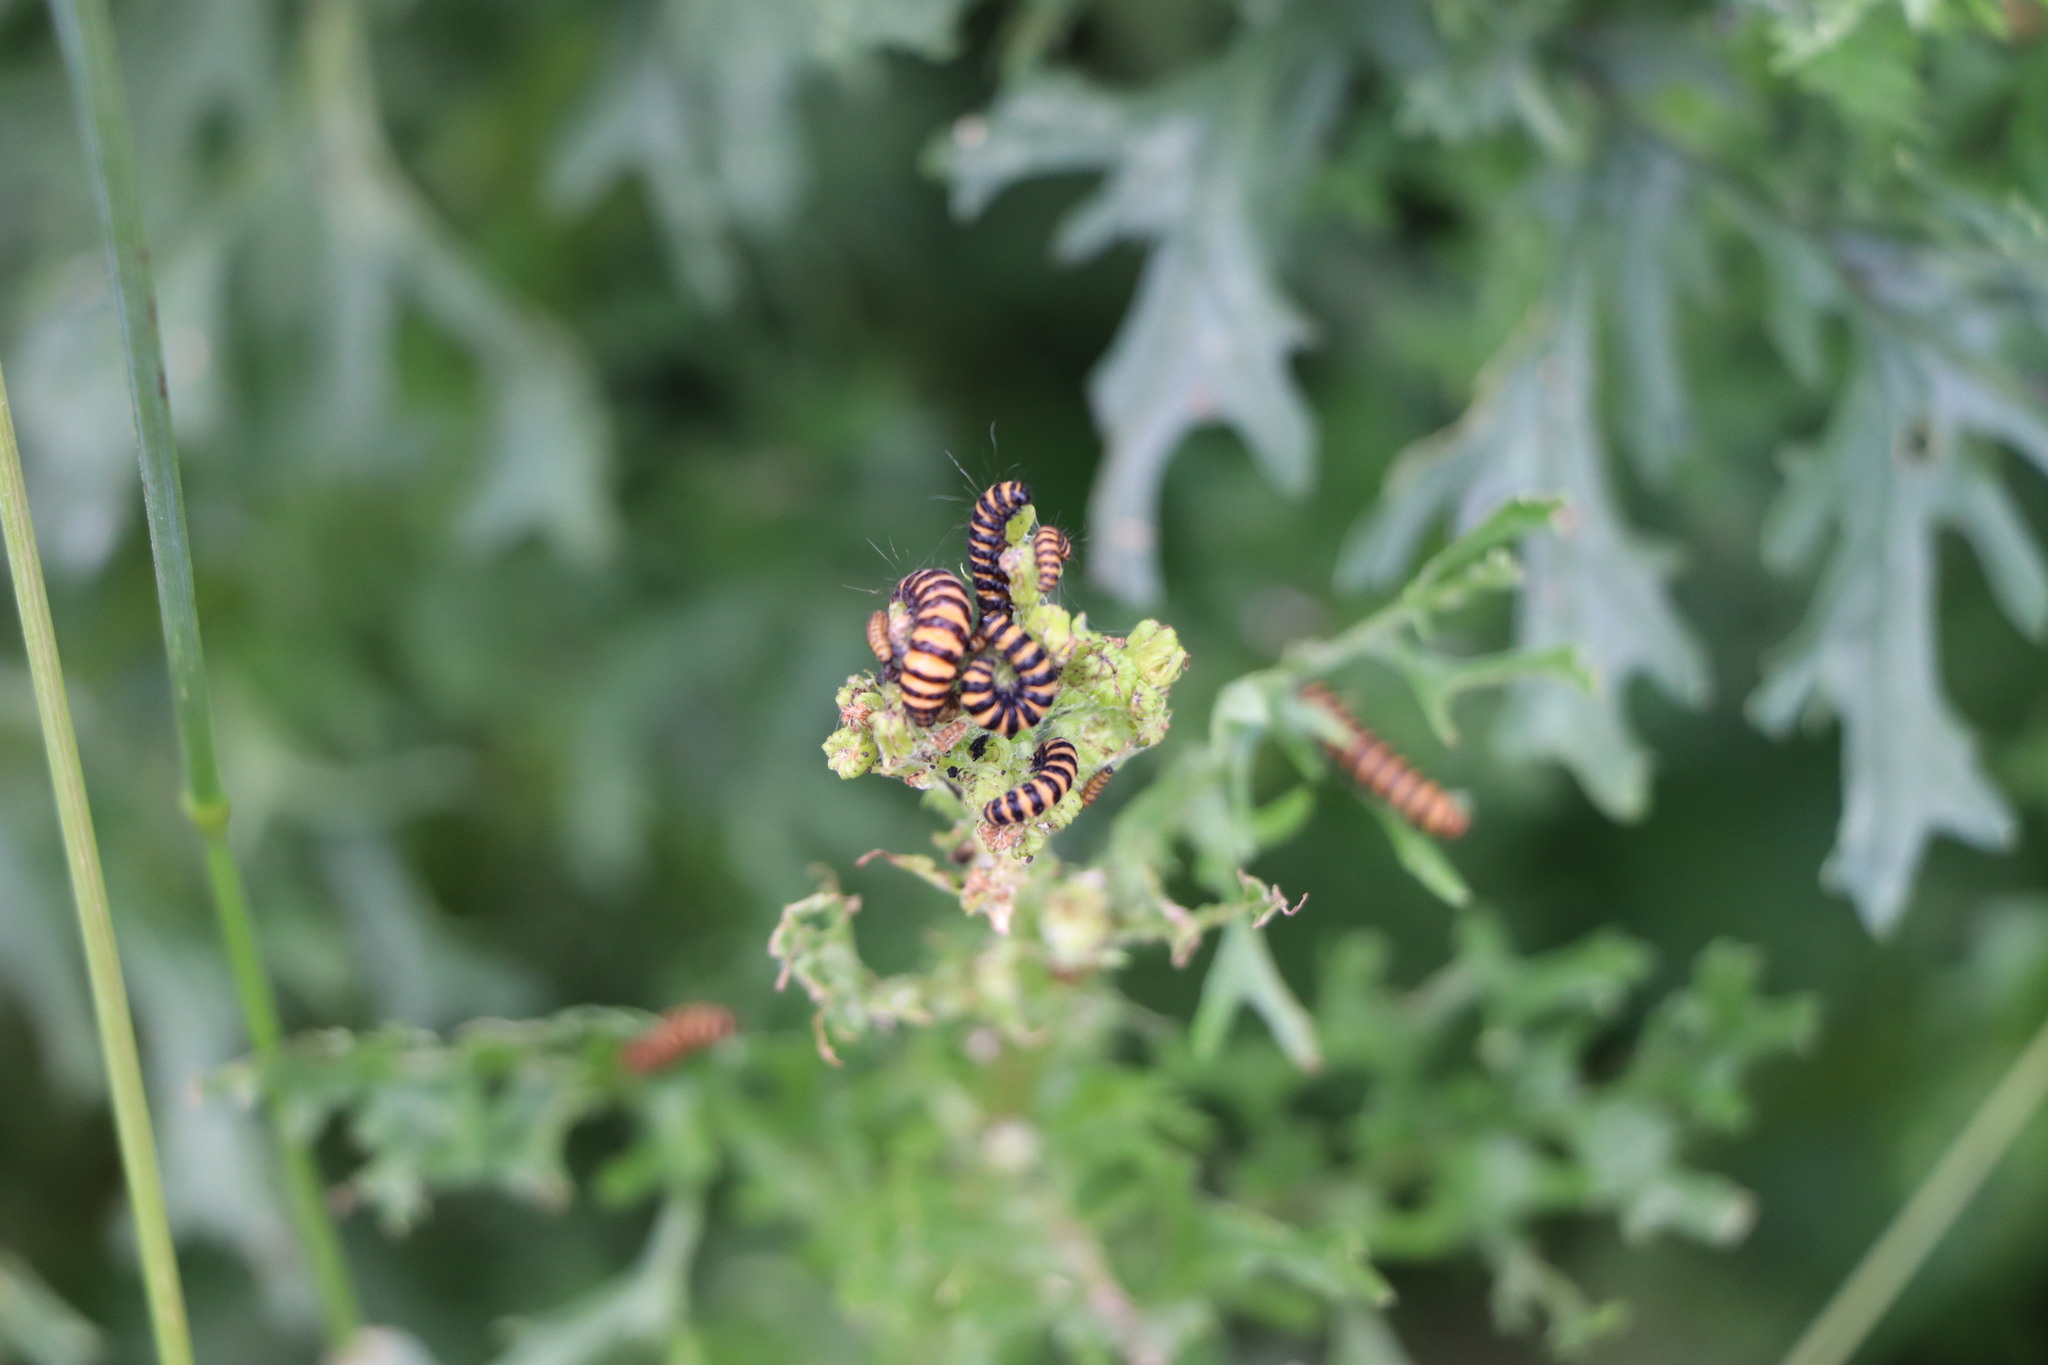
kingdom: Animalia
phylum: Arthropoda
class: Insecta
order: Lepidoptera
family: Erebidae
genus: Tyria
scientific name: Tyria jacobaeae
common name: Cinnabar
